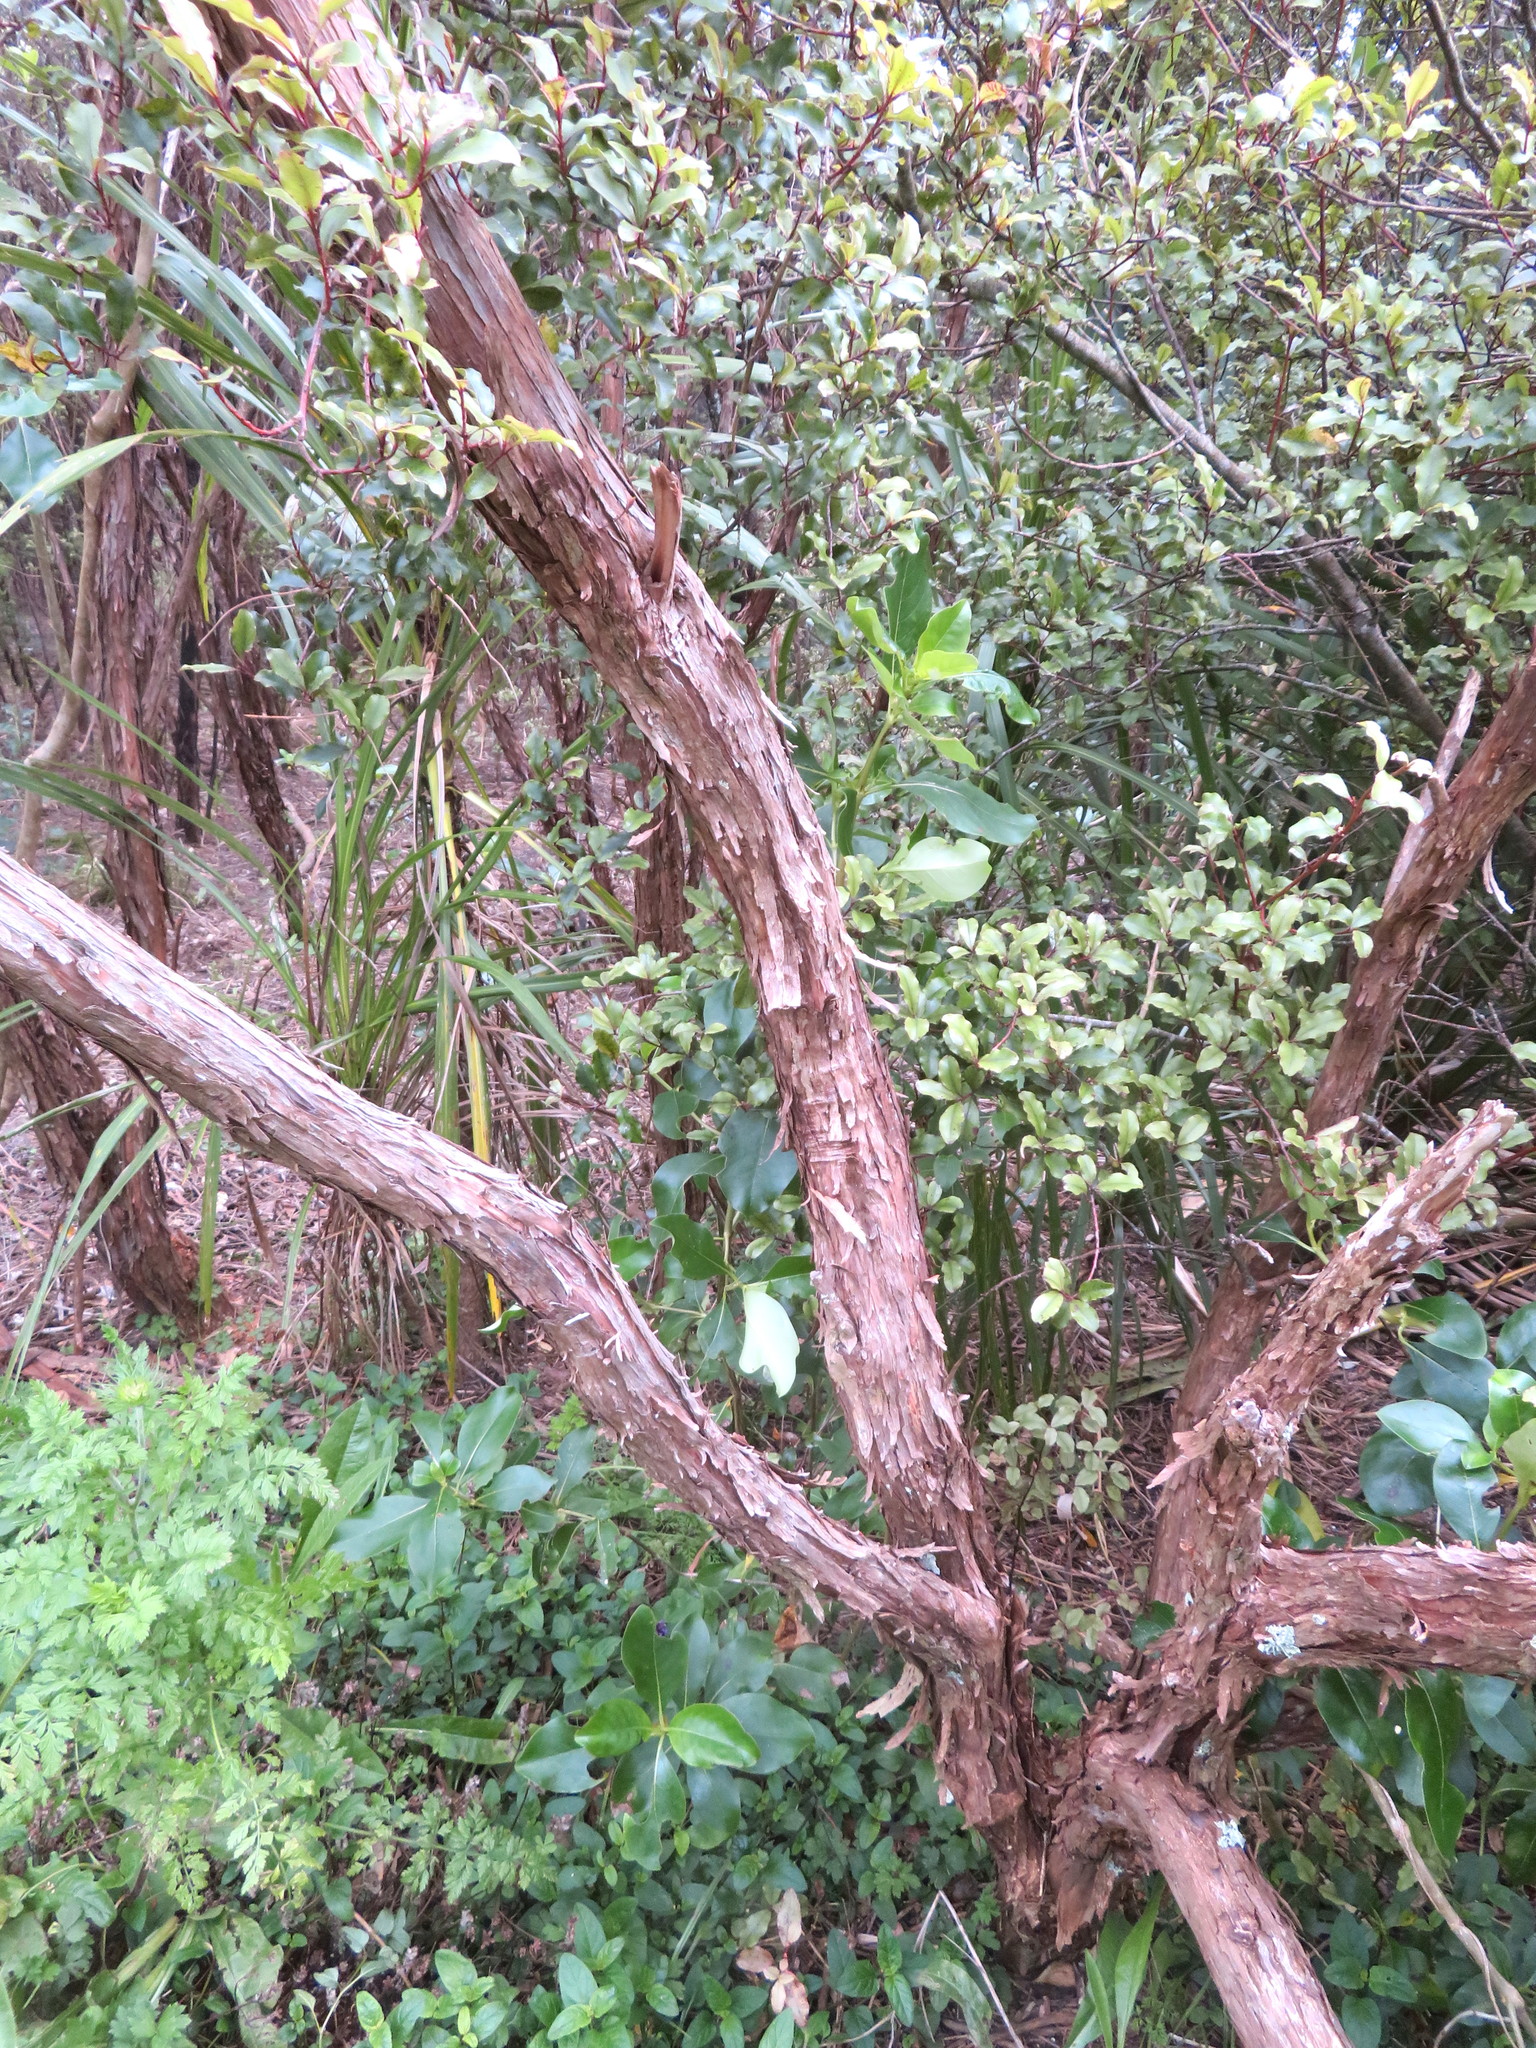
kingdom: Plantae
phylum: Tracheophyta
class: Magnoliopsida
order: Ericales
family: Primulaceae
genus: Myrsine
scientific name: Myrsine australis
